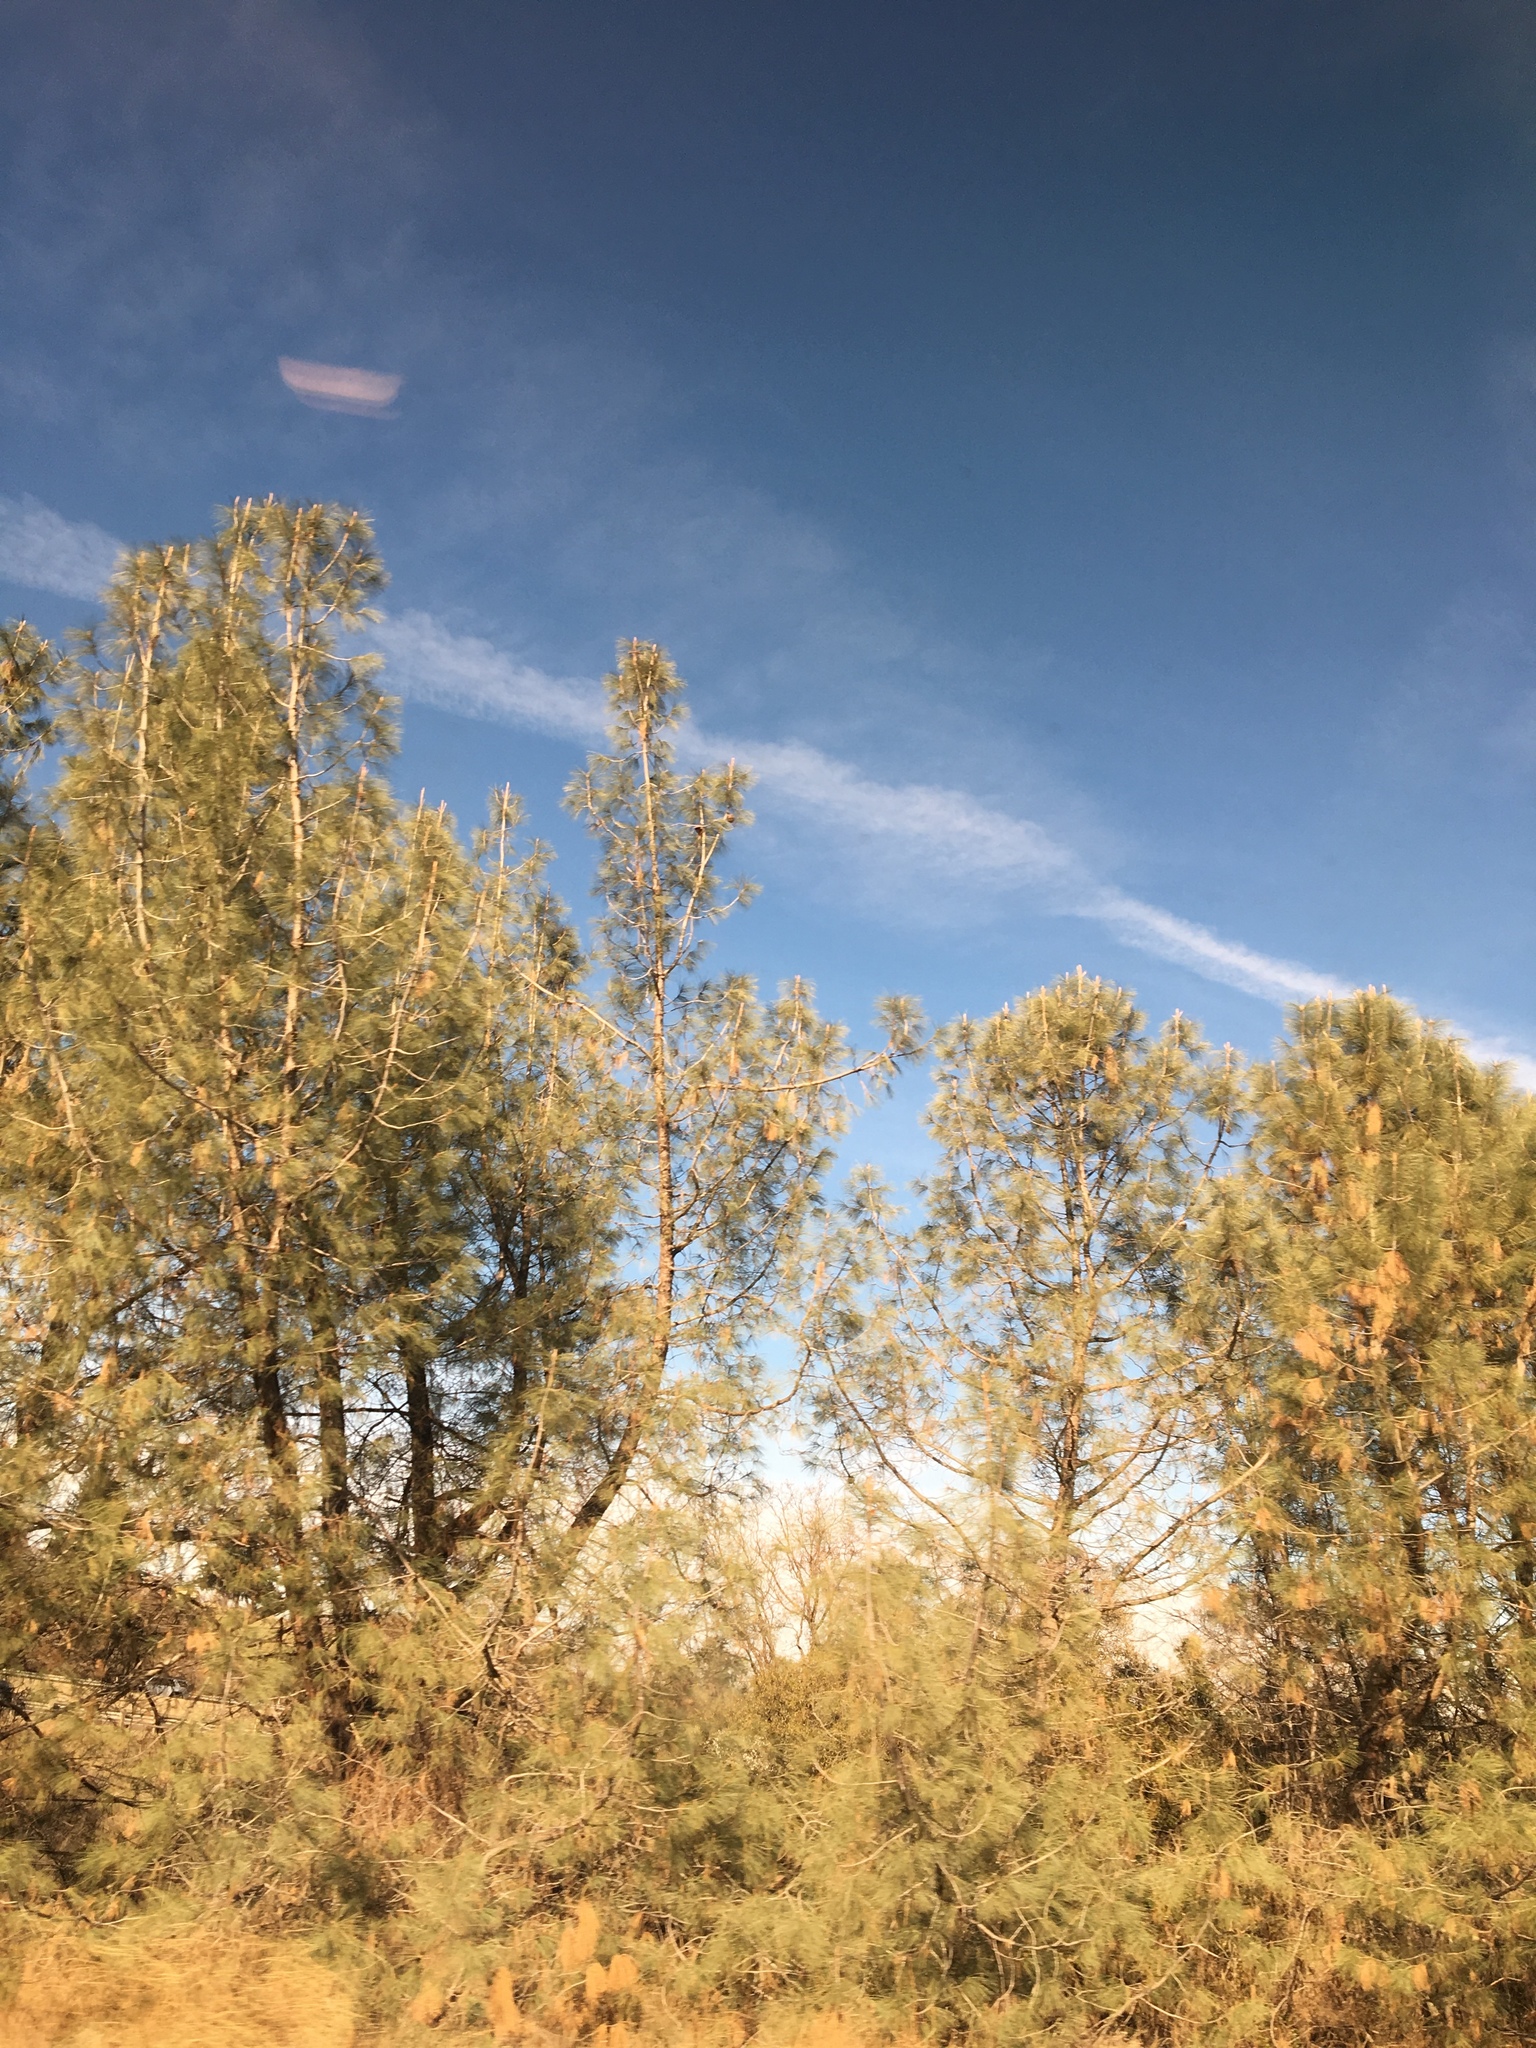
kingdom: Plantae
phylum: Tracheophyta
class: Pinopsida
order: Pinales
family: Pinaceae
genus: Pinus
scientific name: Pinus sabiniana
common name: Bull pine
